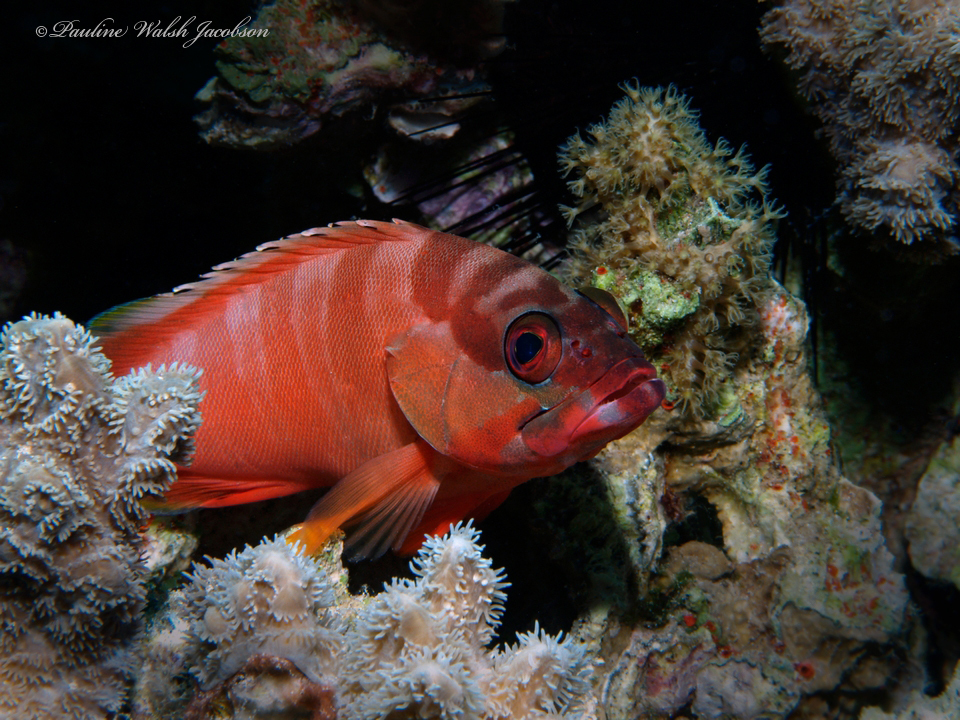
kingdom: Animalia
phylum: Chordata
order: Perciformes
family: Serranidae
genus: Epinephelus
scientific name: Epinephelus fasciatus
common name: Blacktip grouper
